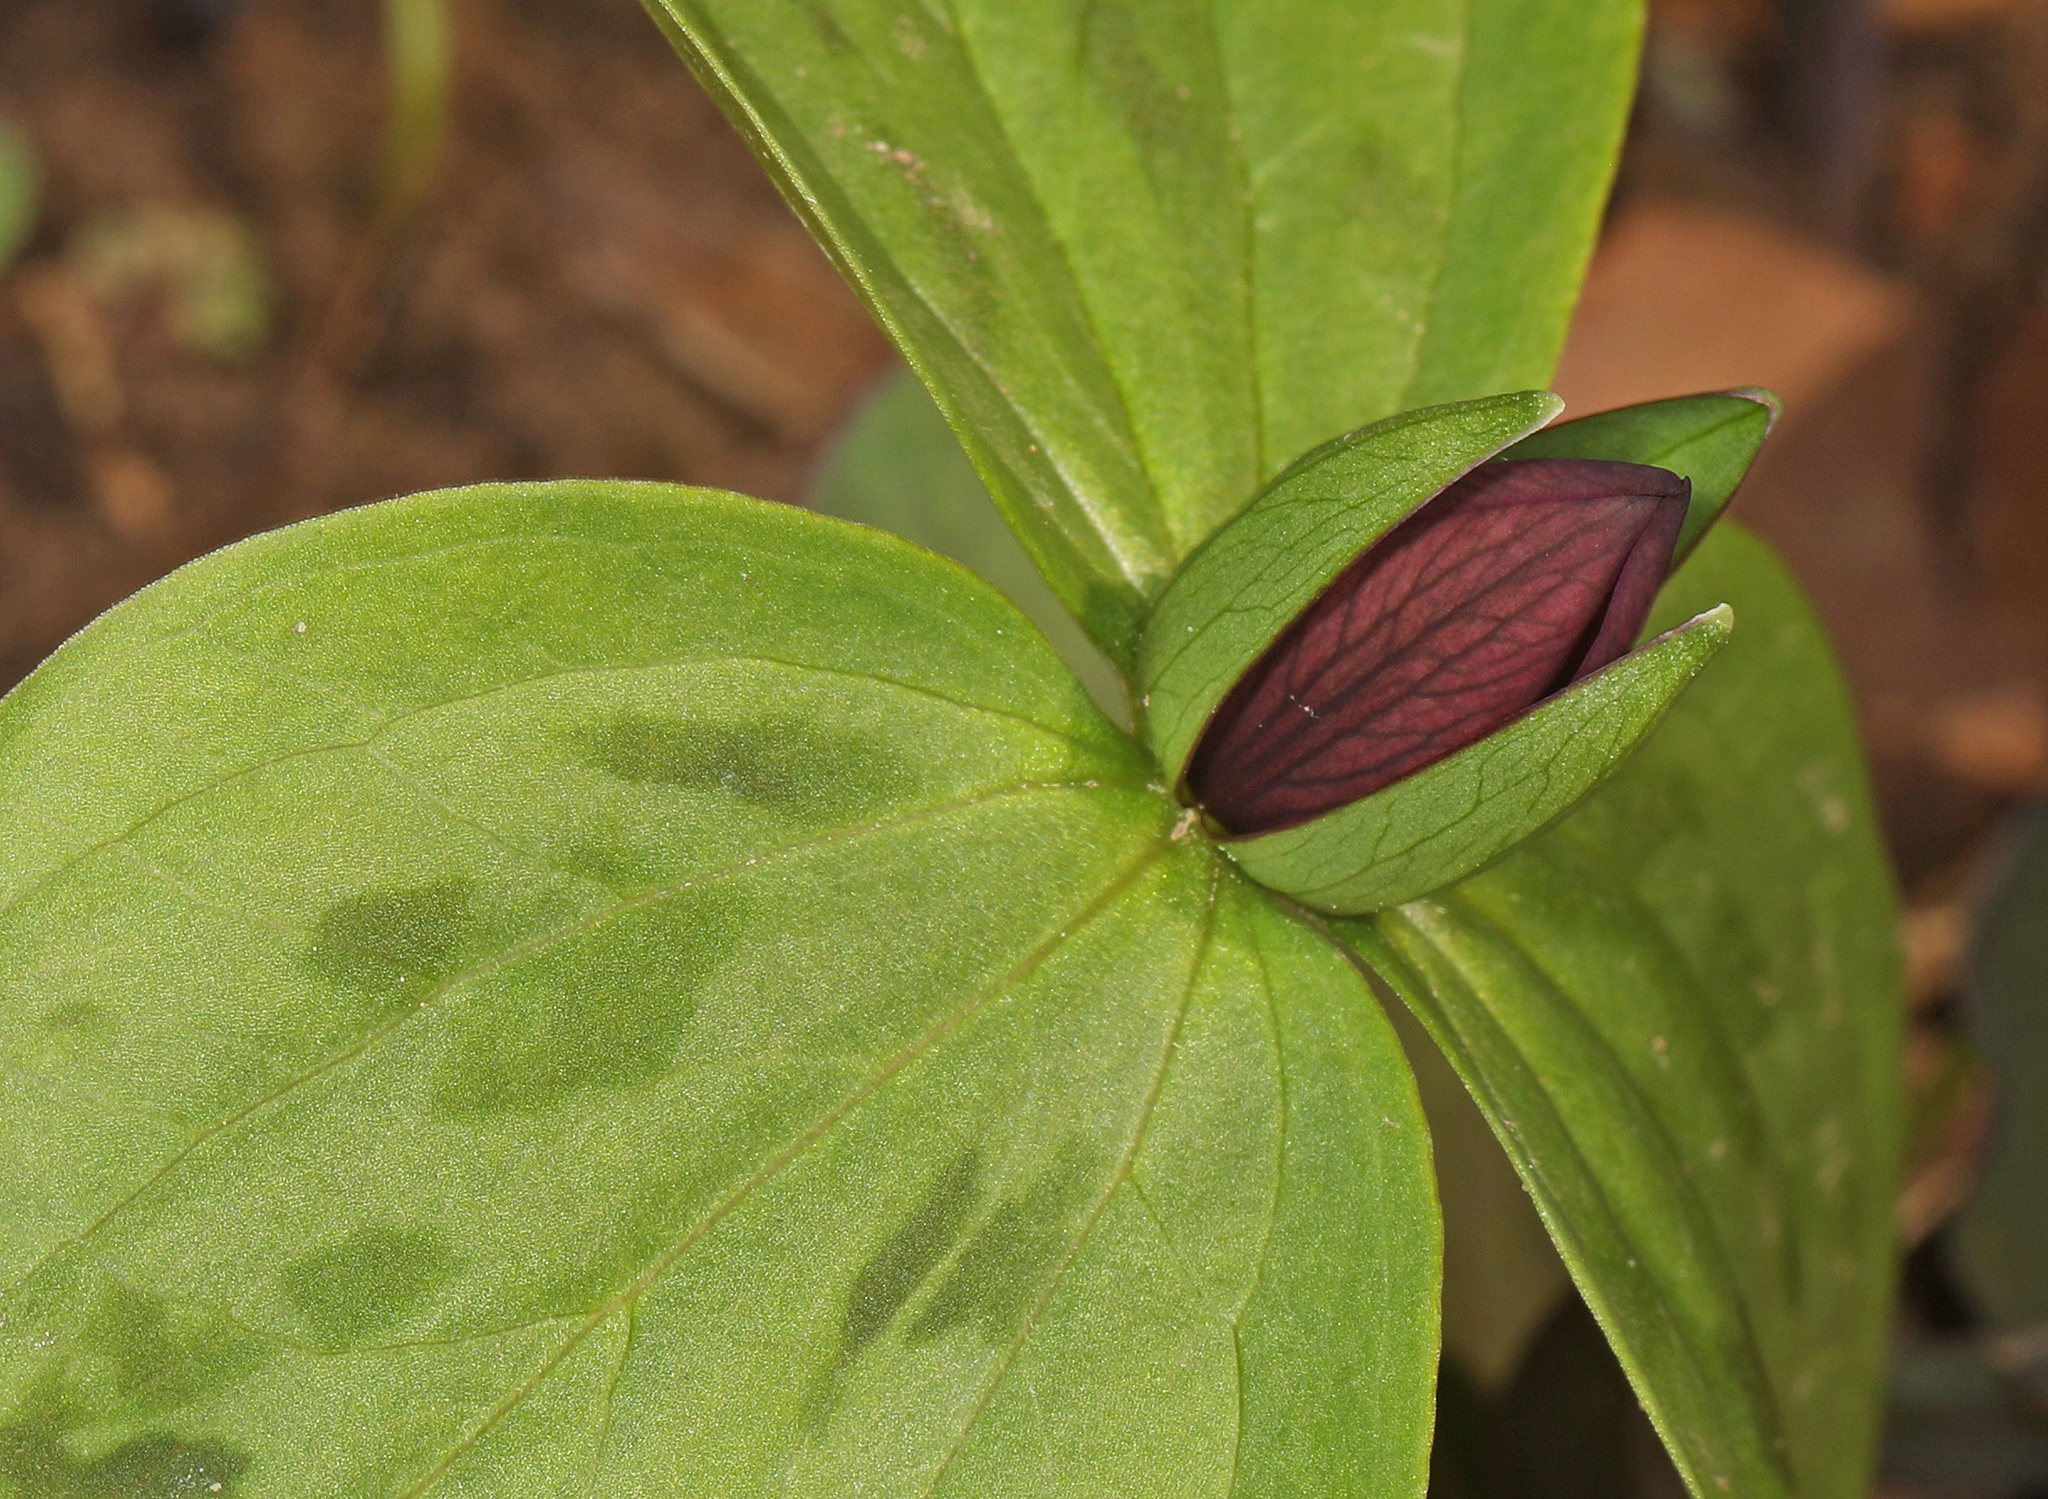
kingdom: Plantae
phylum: Tracheophyta
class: Liliopsida
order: Liliales
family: Melanthiaceae
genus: Trillium
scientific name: Trillium sessile
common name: Sessile trillium
